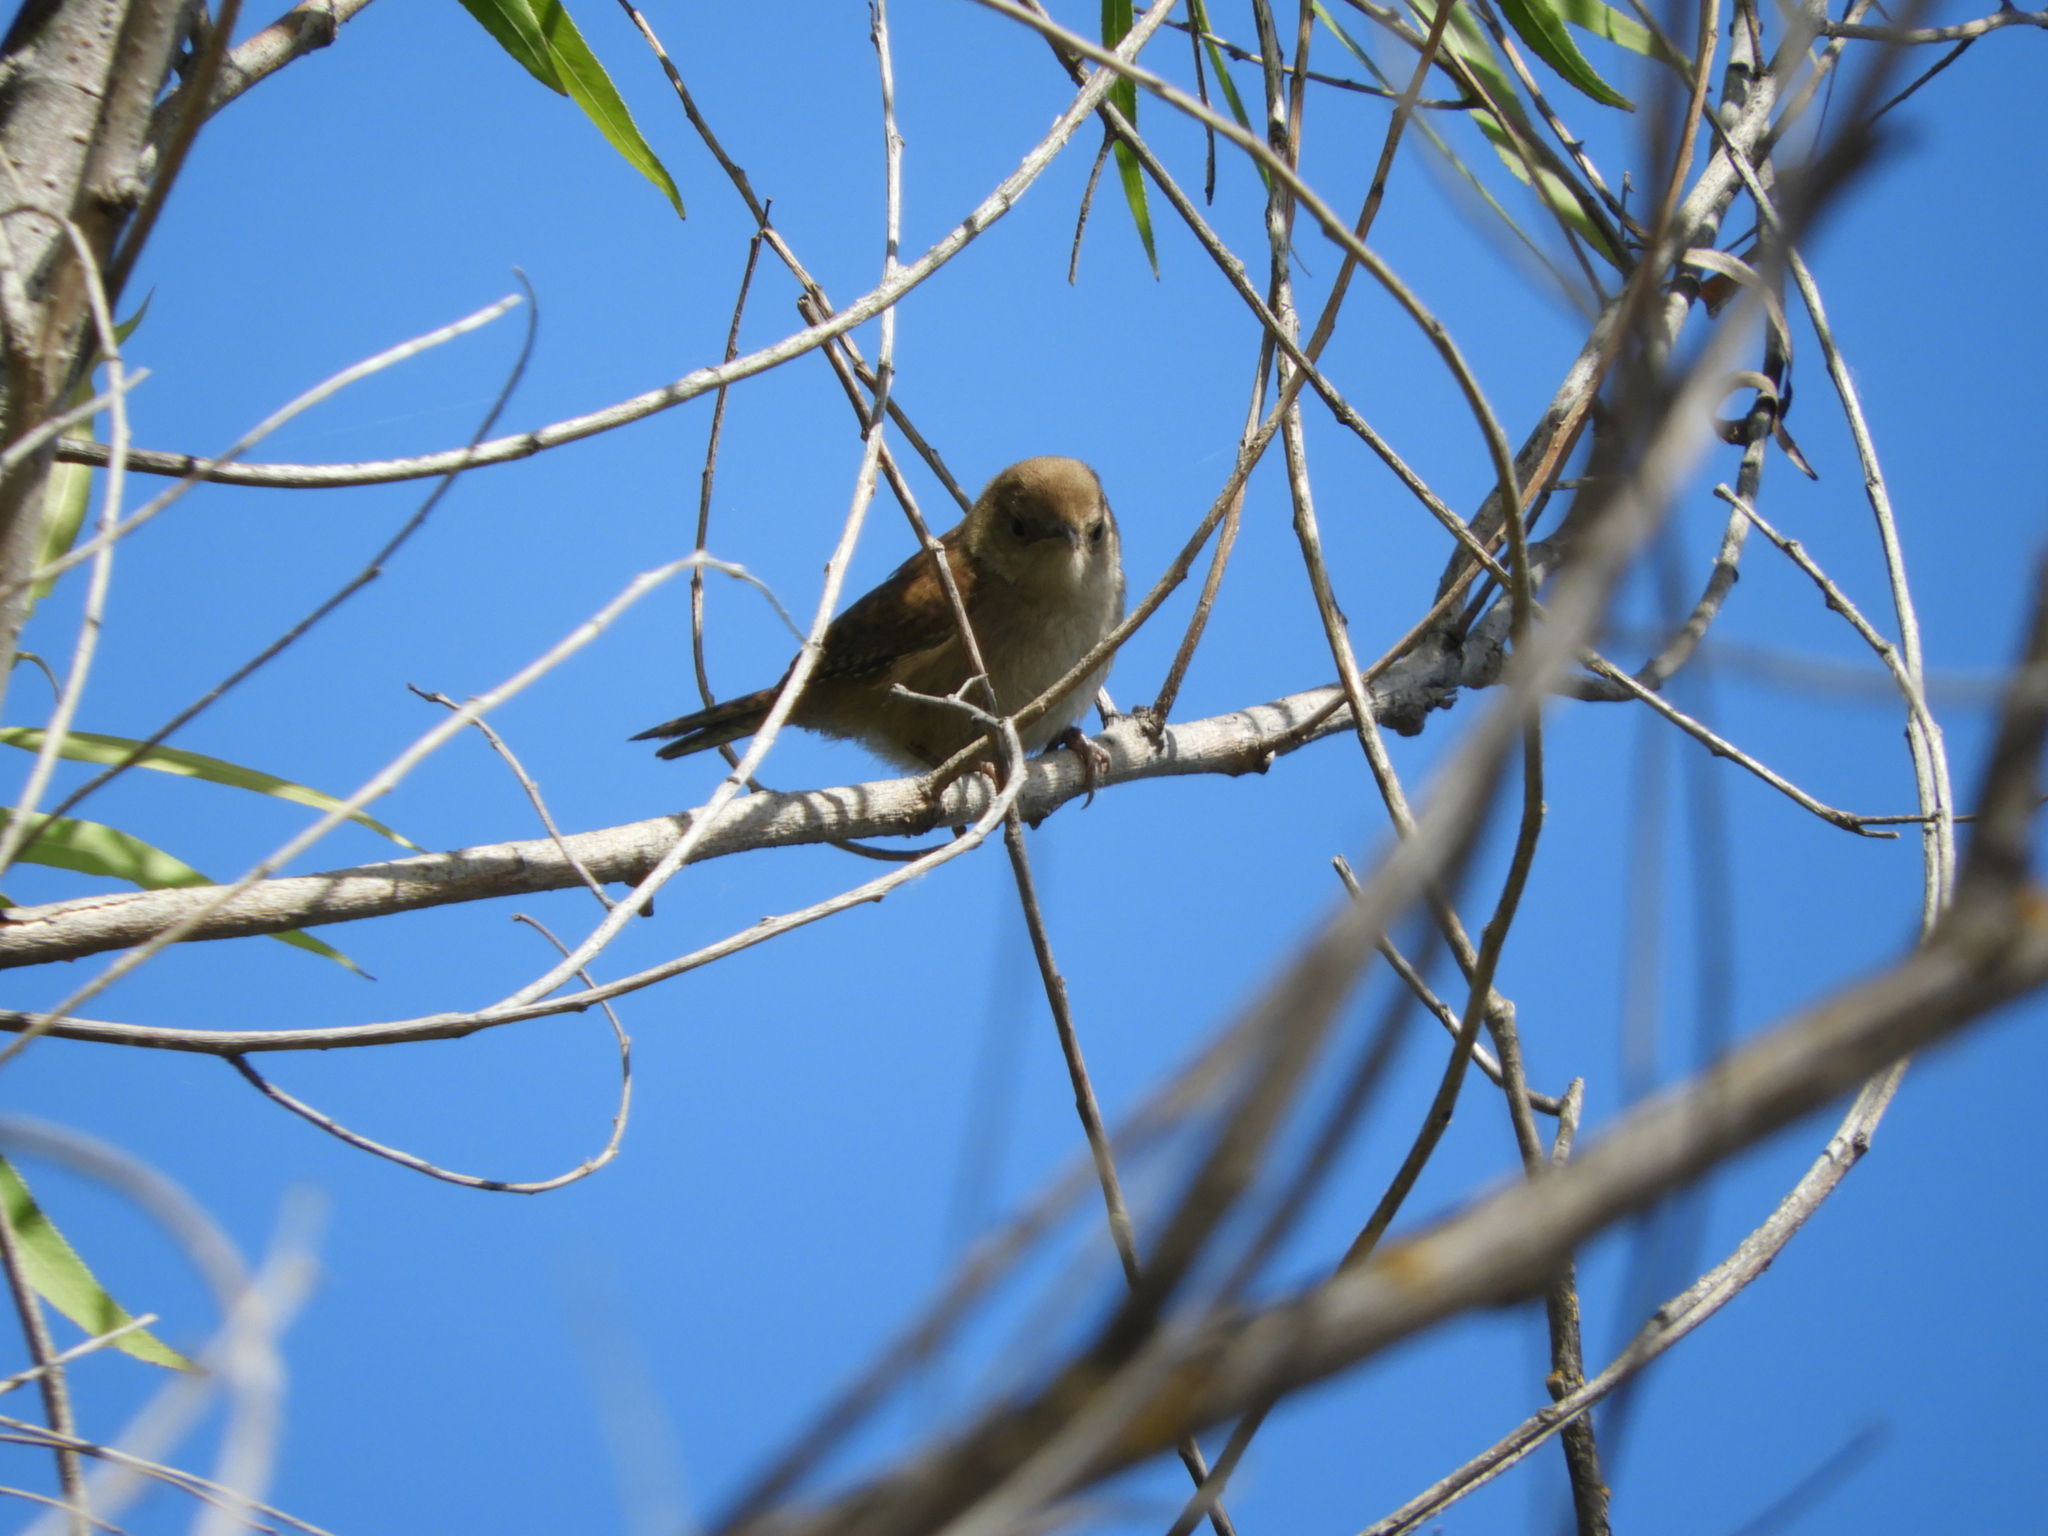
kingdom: Animalia
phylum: Chordata
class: Aves
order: Passeriformes
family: Troglodytidae
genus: Troglodytes
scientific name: Troglodytes aedon
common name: House wren
